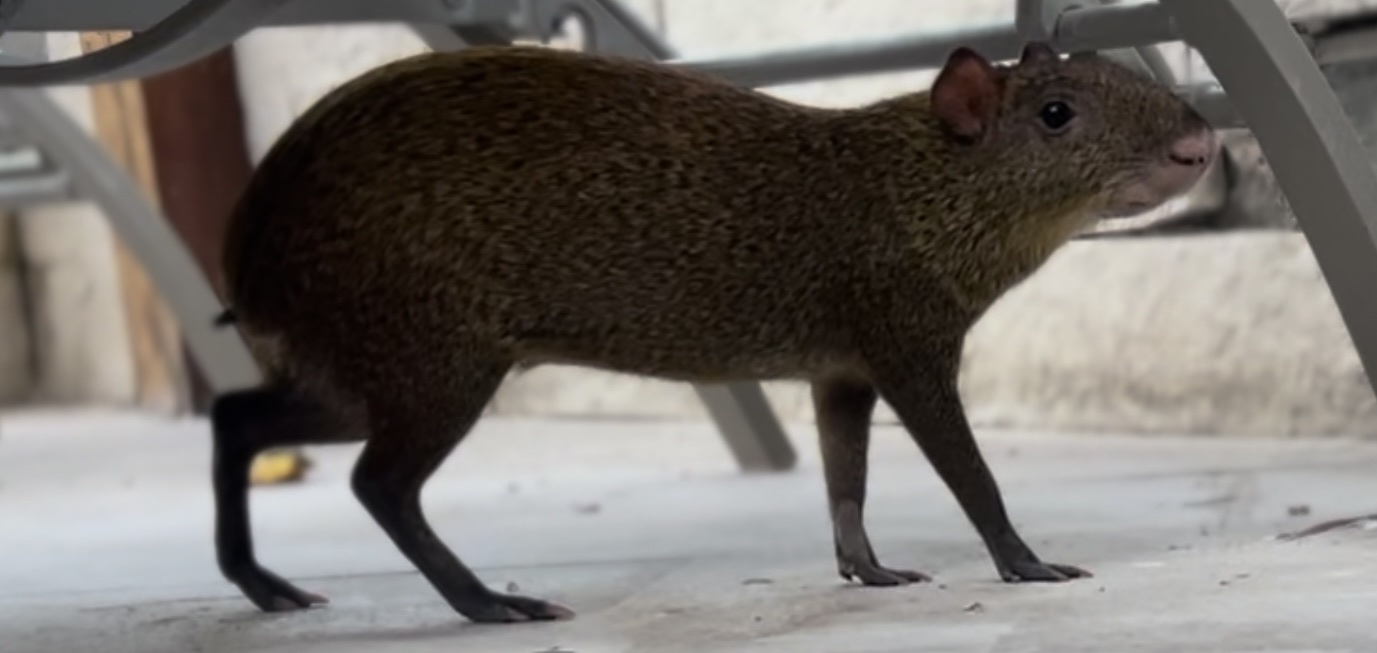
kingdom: Animalia
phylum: Chordata
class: Mammalia
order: Rodentia
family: Dasyproctidae
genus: Dasyprocta
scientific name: Dasyprocta punctata
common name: Central american agouti
